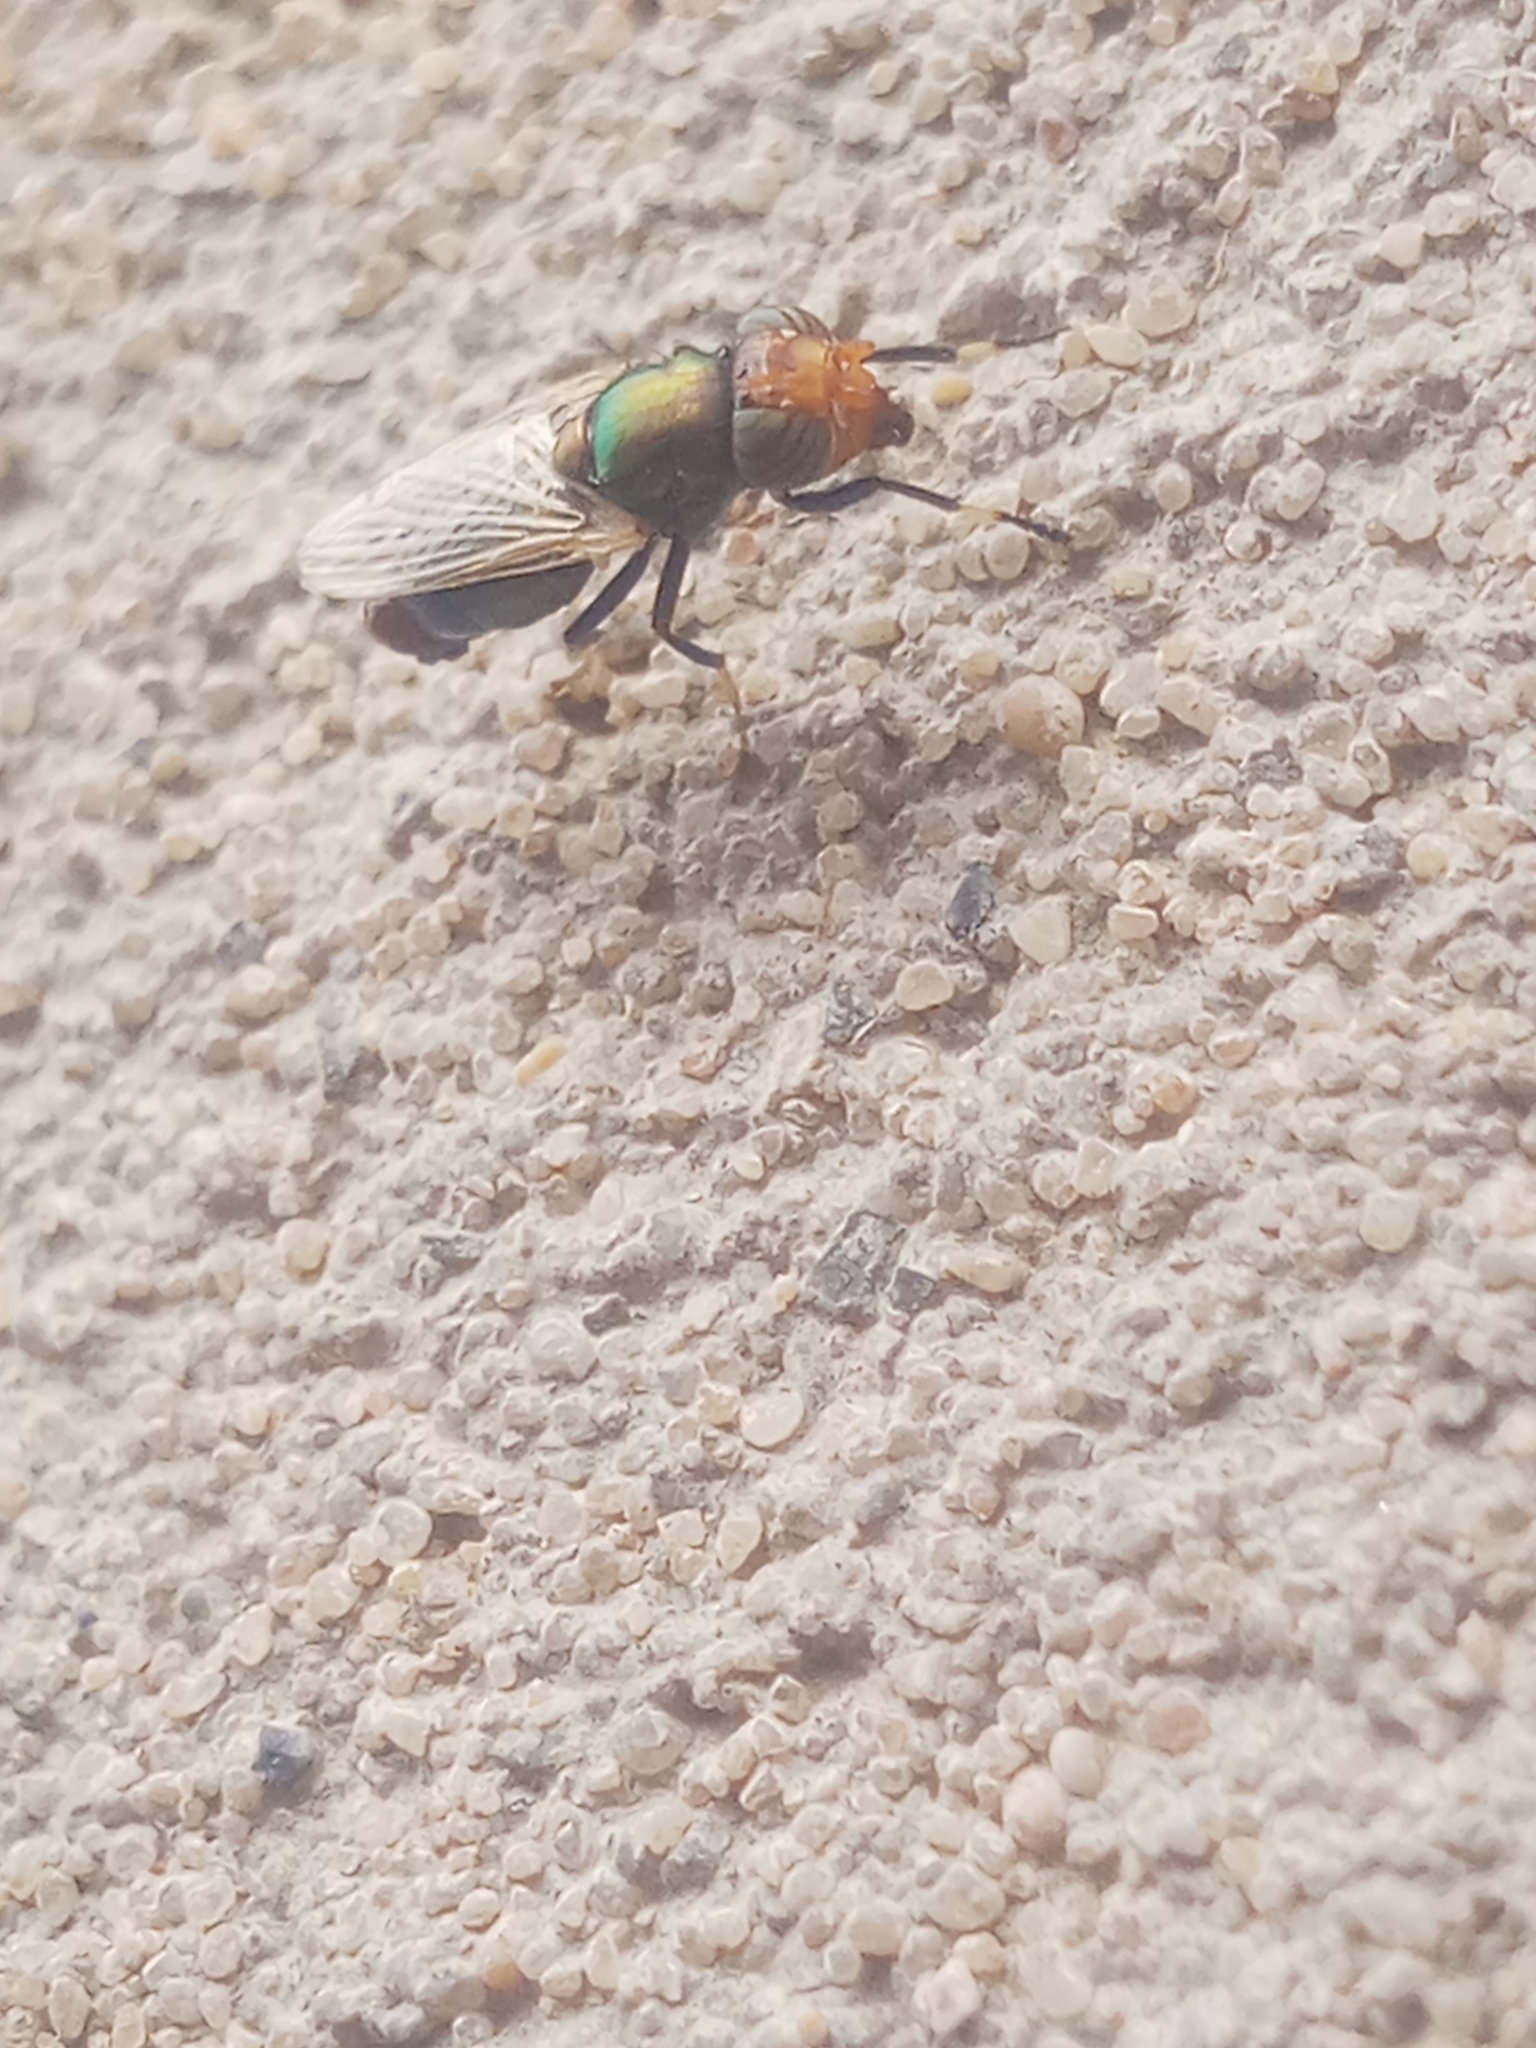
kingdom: Animalia
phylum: Arthropoda
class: Insecta
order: Diptera
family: Ulidiidae
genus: Physiphora
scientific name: Physiphora alceae
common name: Picture-winged fly
